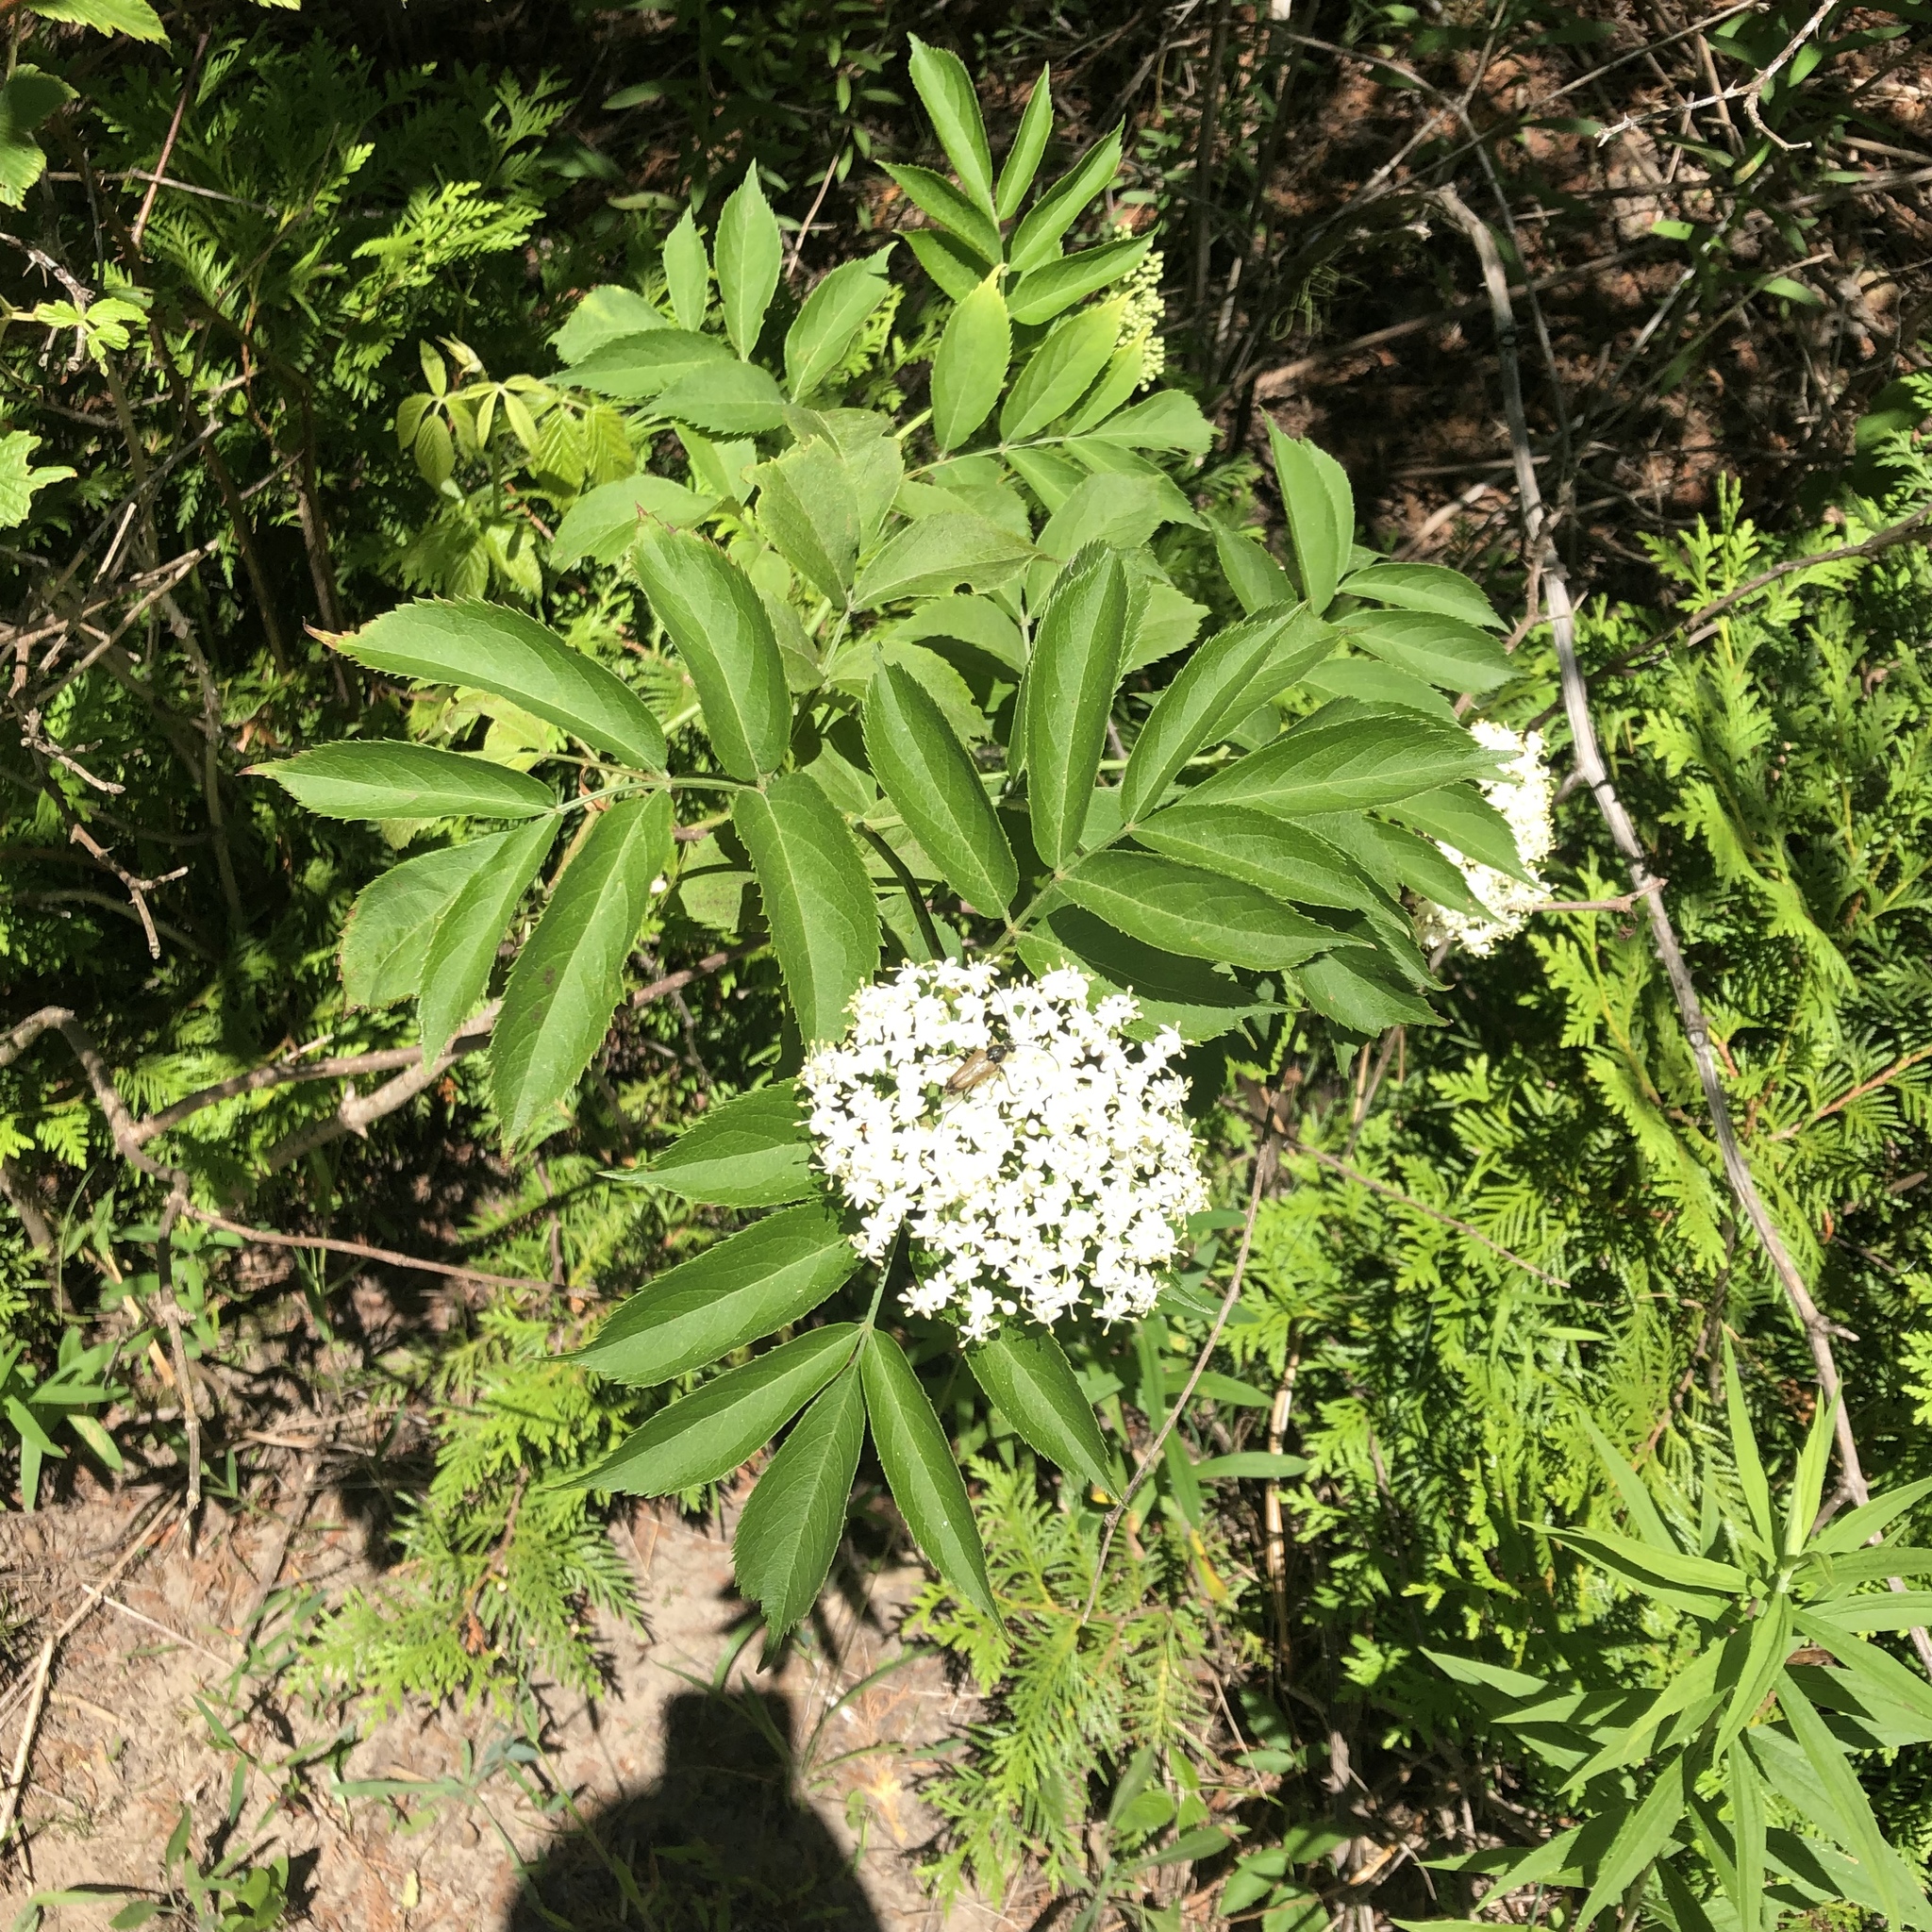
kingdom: Plantae
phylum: Tracheophyta
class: Magnoliopsida
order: Dipsacales
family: Viburnaceae
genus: Sambucus
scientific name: Sambucus canadensis
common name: American elder
